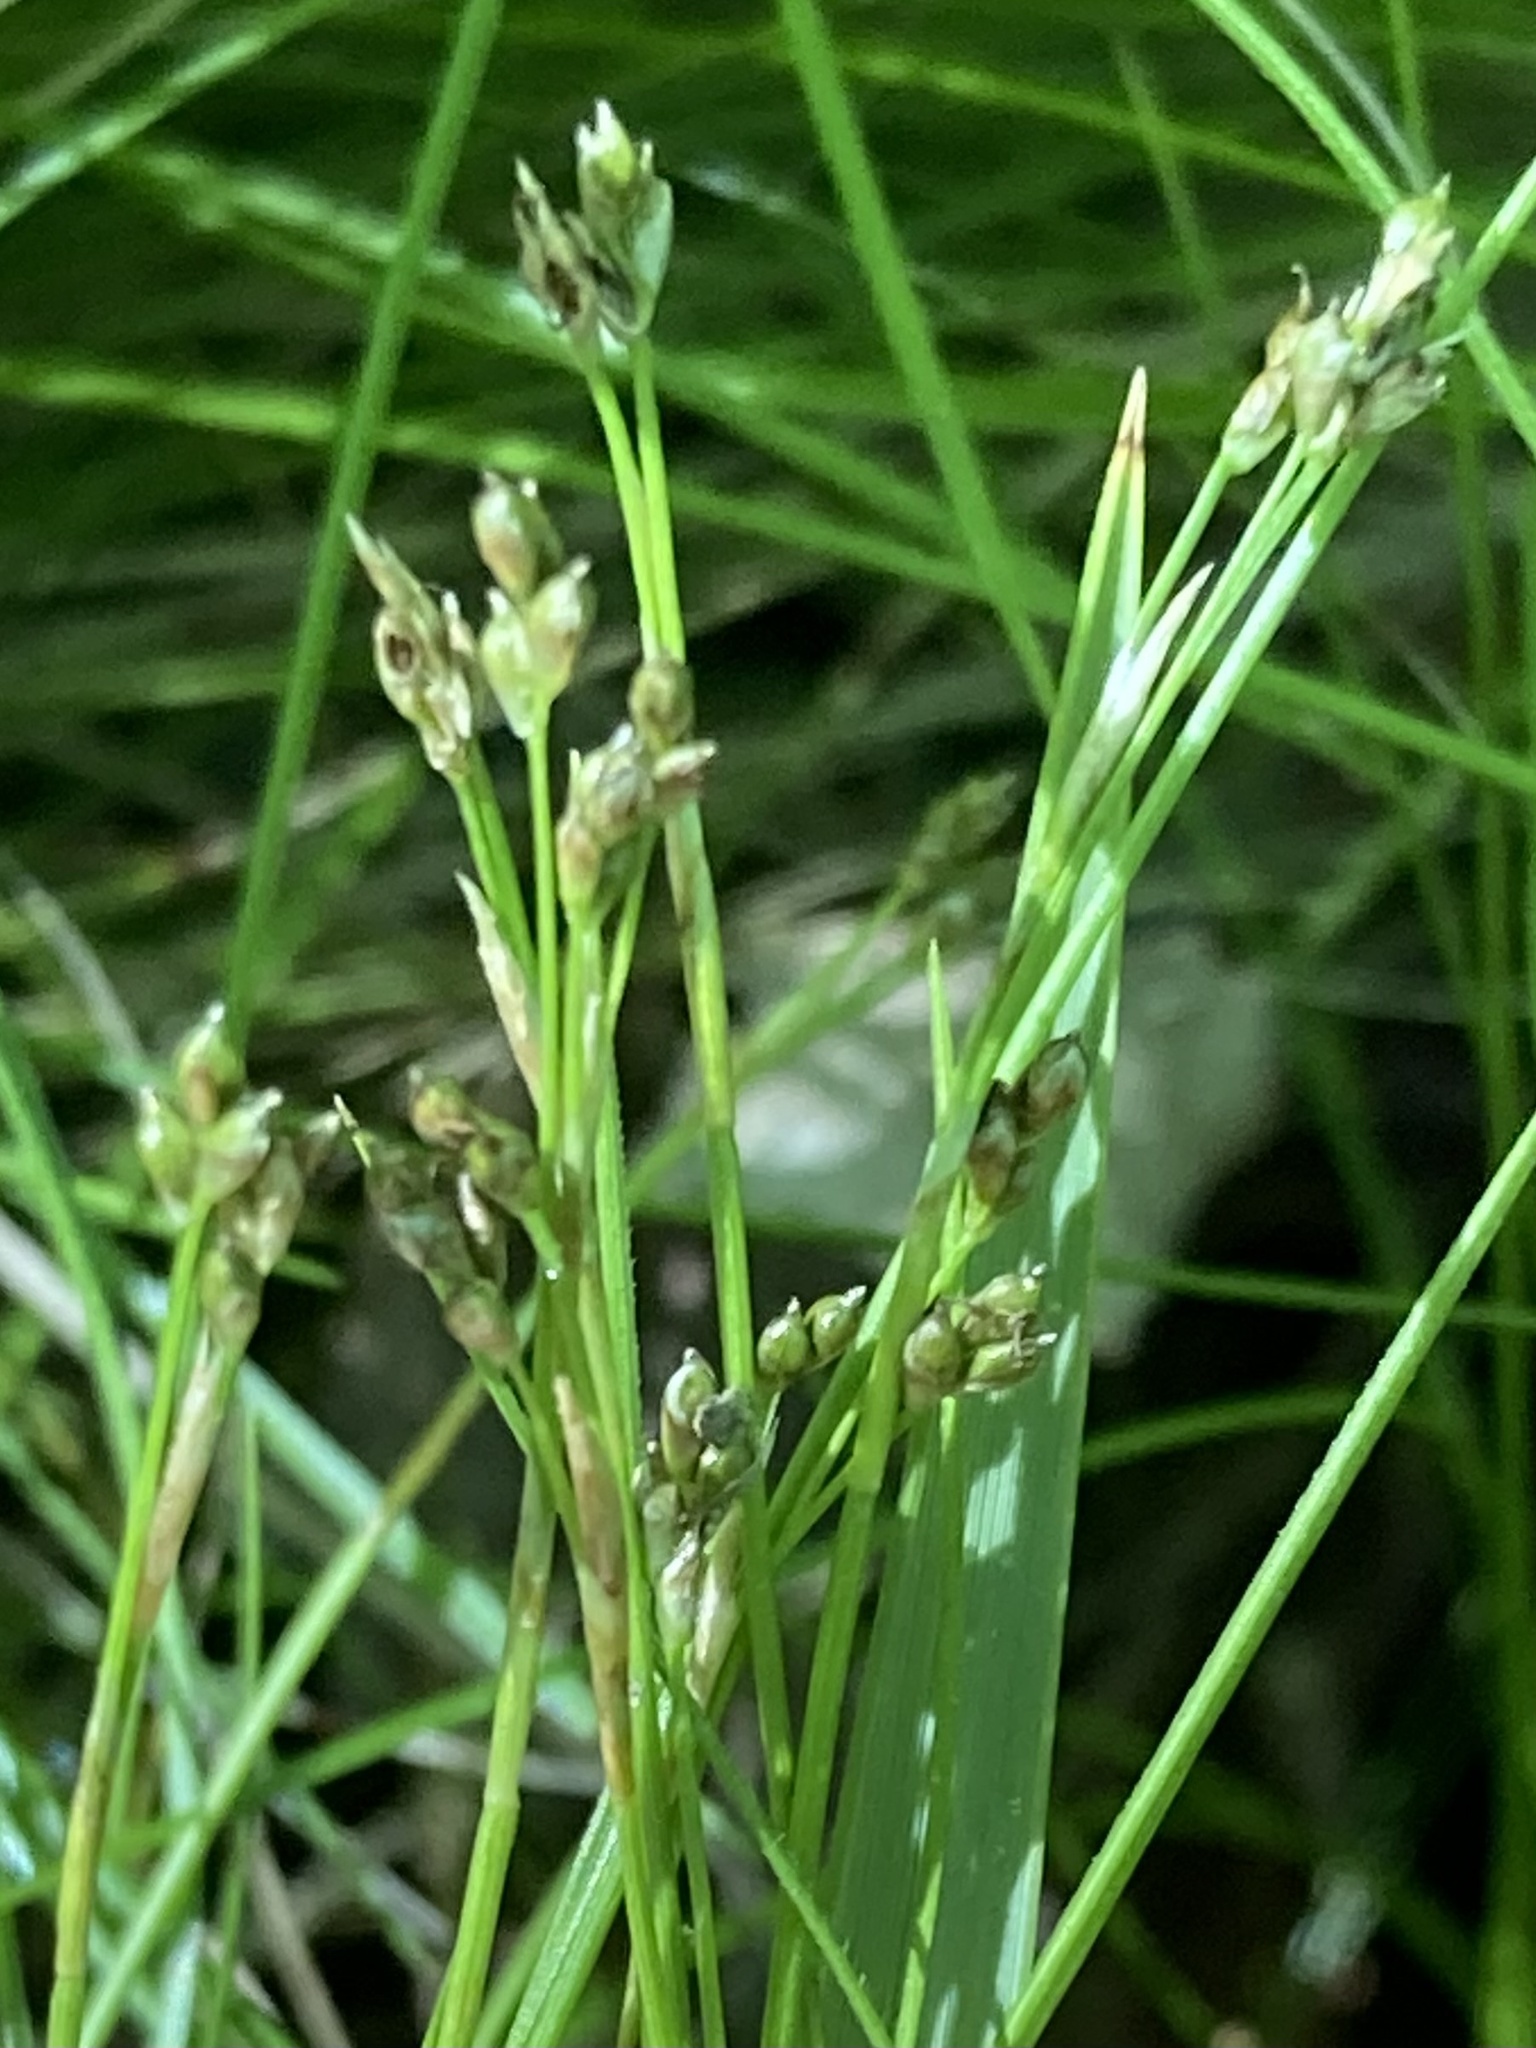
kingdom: Plantae
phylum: Tracheophyta
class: Liliopsida
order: Poales
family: Cyperaceae
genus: Carex
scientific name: Carex eburnea
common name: Bristle-leaved sedge
